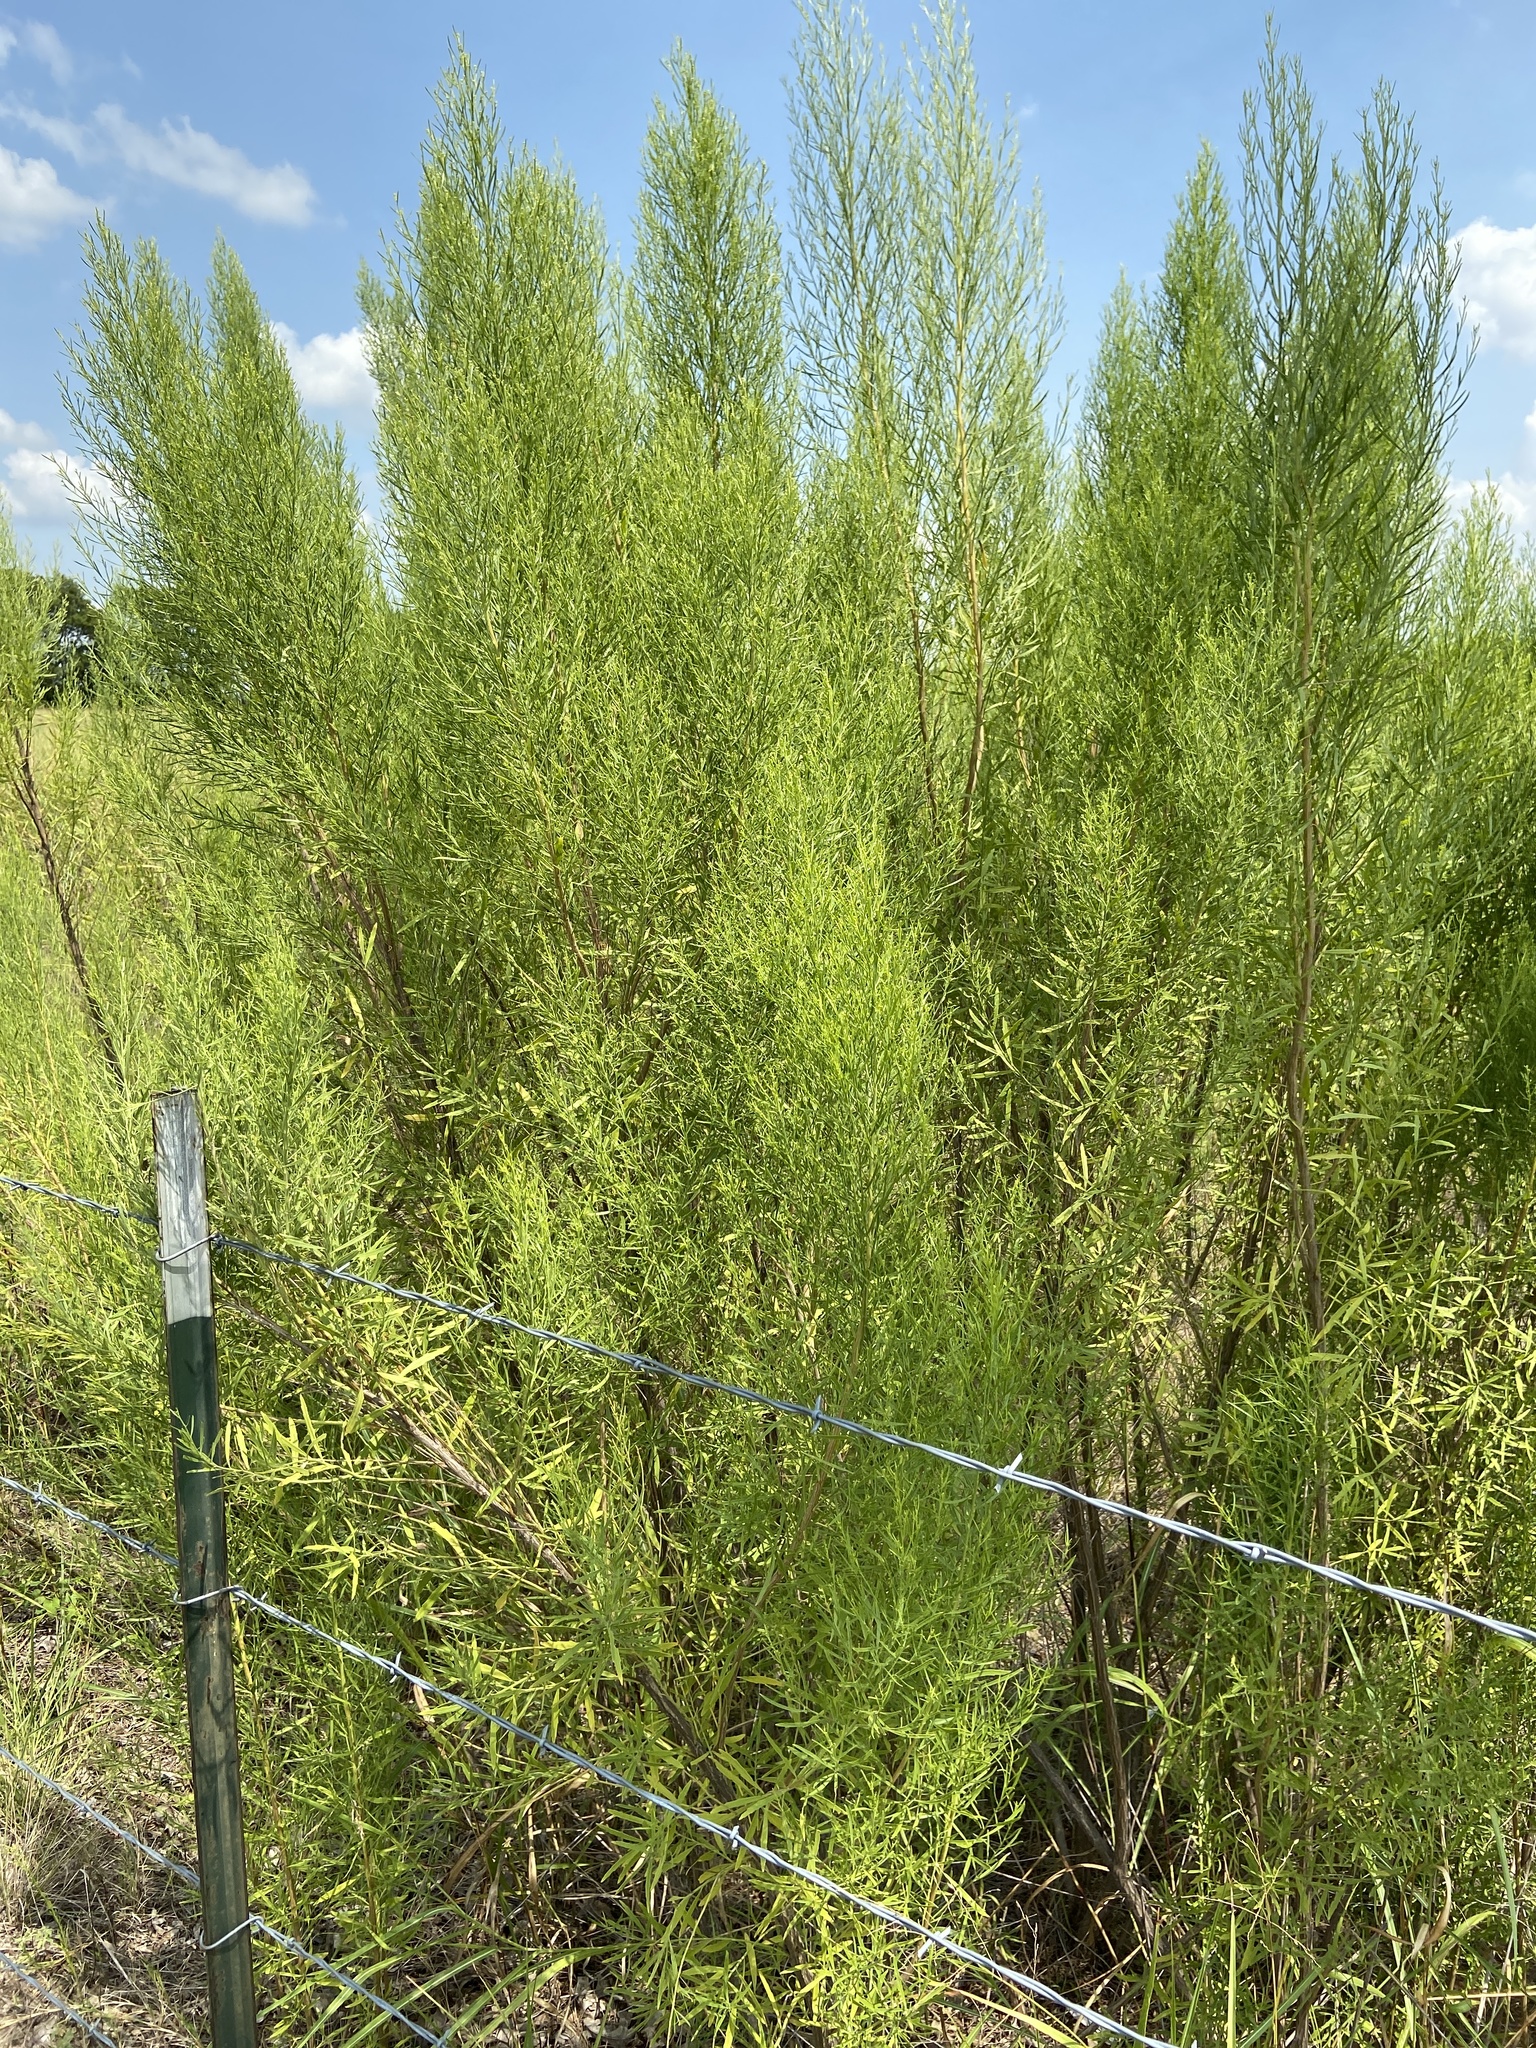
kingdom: Plantae
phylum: Tracheophyta
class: Magnoliopsida
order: Asterales
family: Asteraceae
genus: Baccharis
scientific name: Baccharis neglecta
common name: Roosevelt-weed
